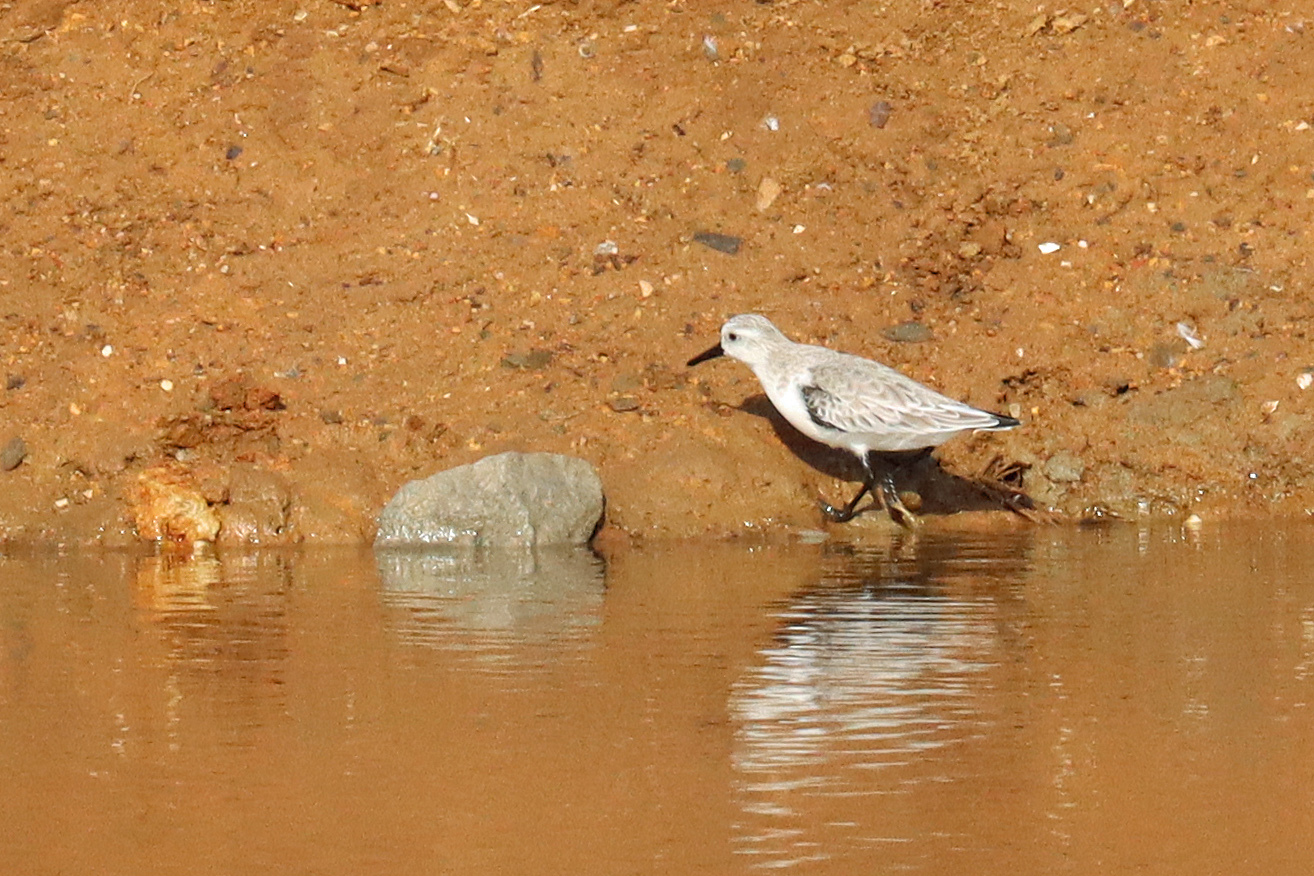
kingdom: Animalia
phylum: Chordata
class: Aves
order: Charadriiformes
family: Scolopacidae
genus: Calidris
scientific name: Calidris alba
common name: Sanderling
